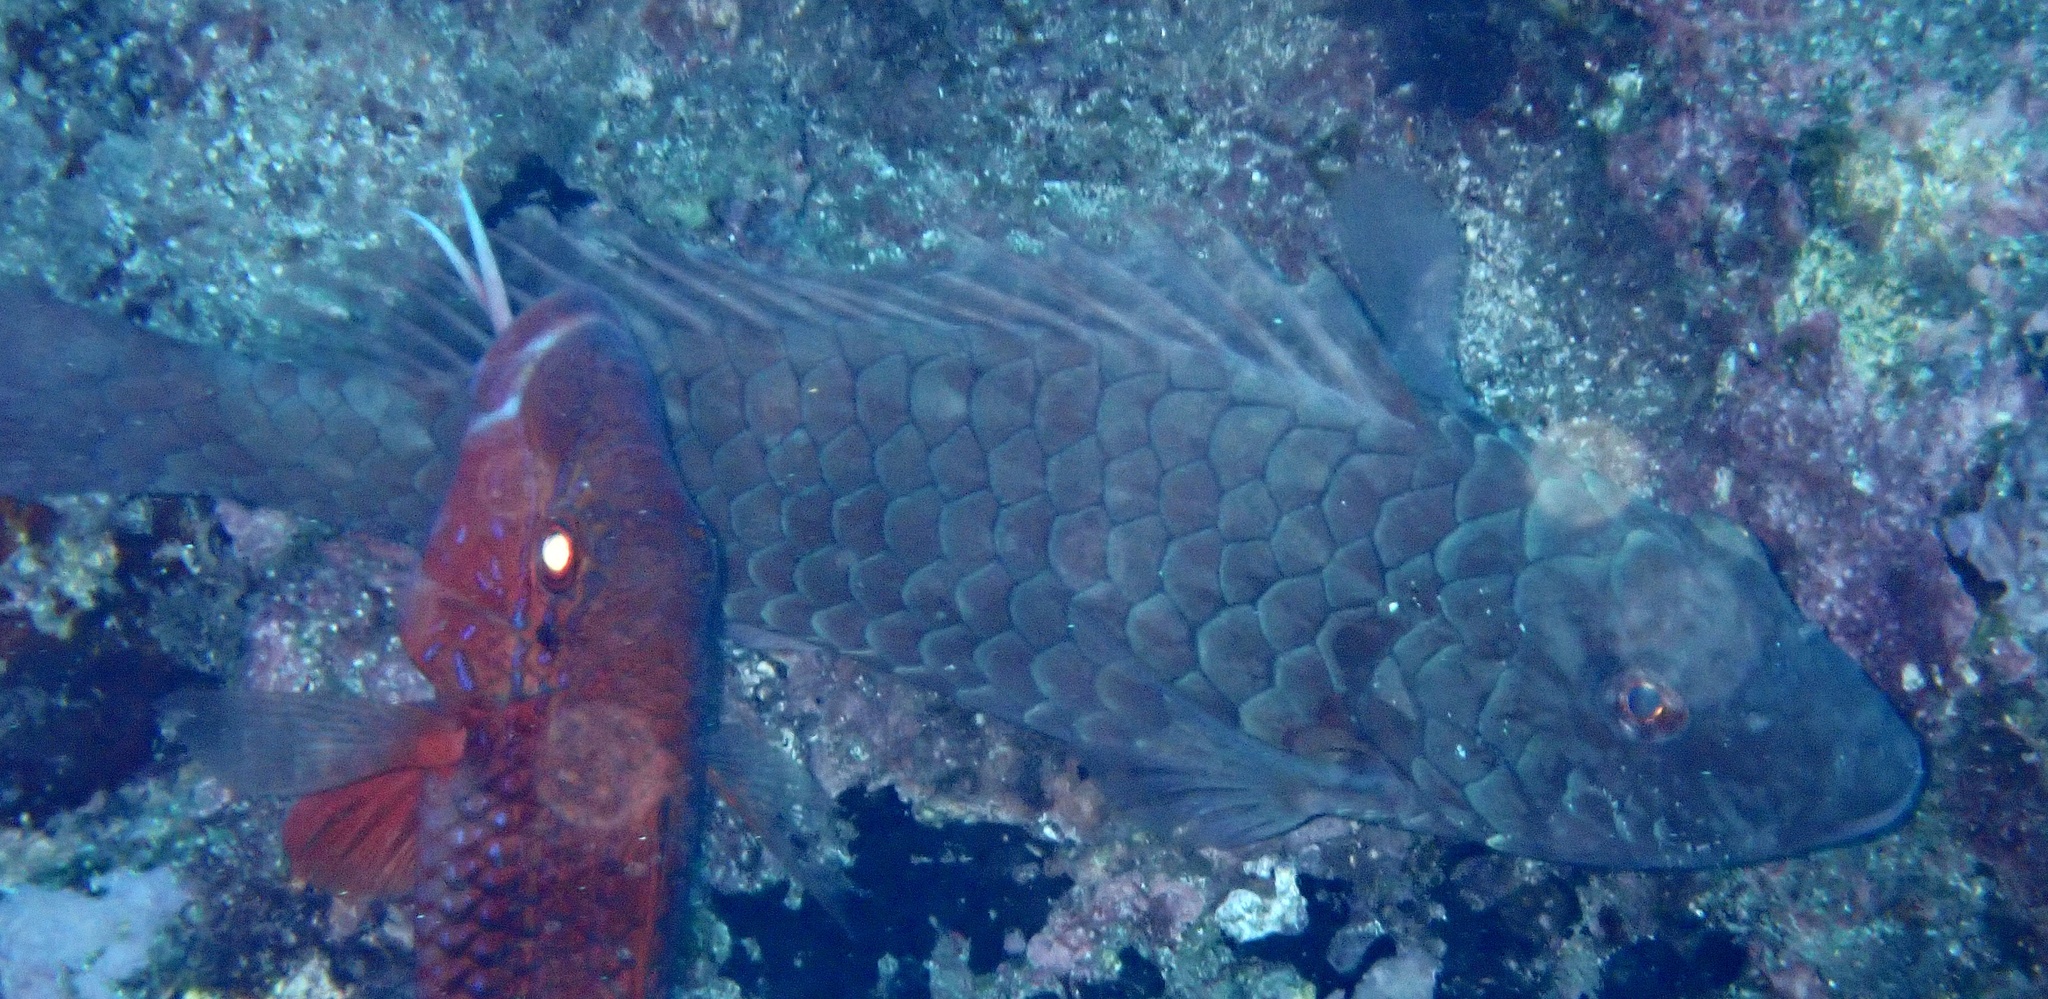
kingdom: Animalia
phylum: Chordata
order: Perciformes
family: Scaridae
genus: Sparisoma
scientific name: Sparisoma cretense
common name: Parrotfish
